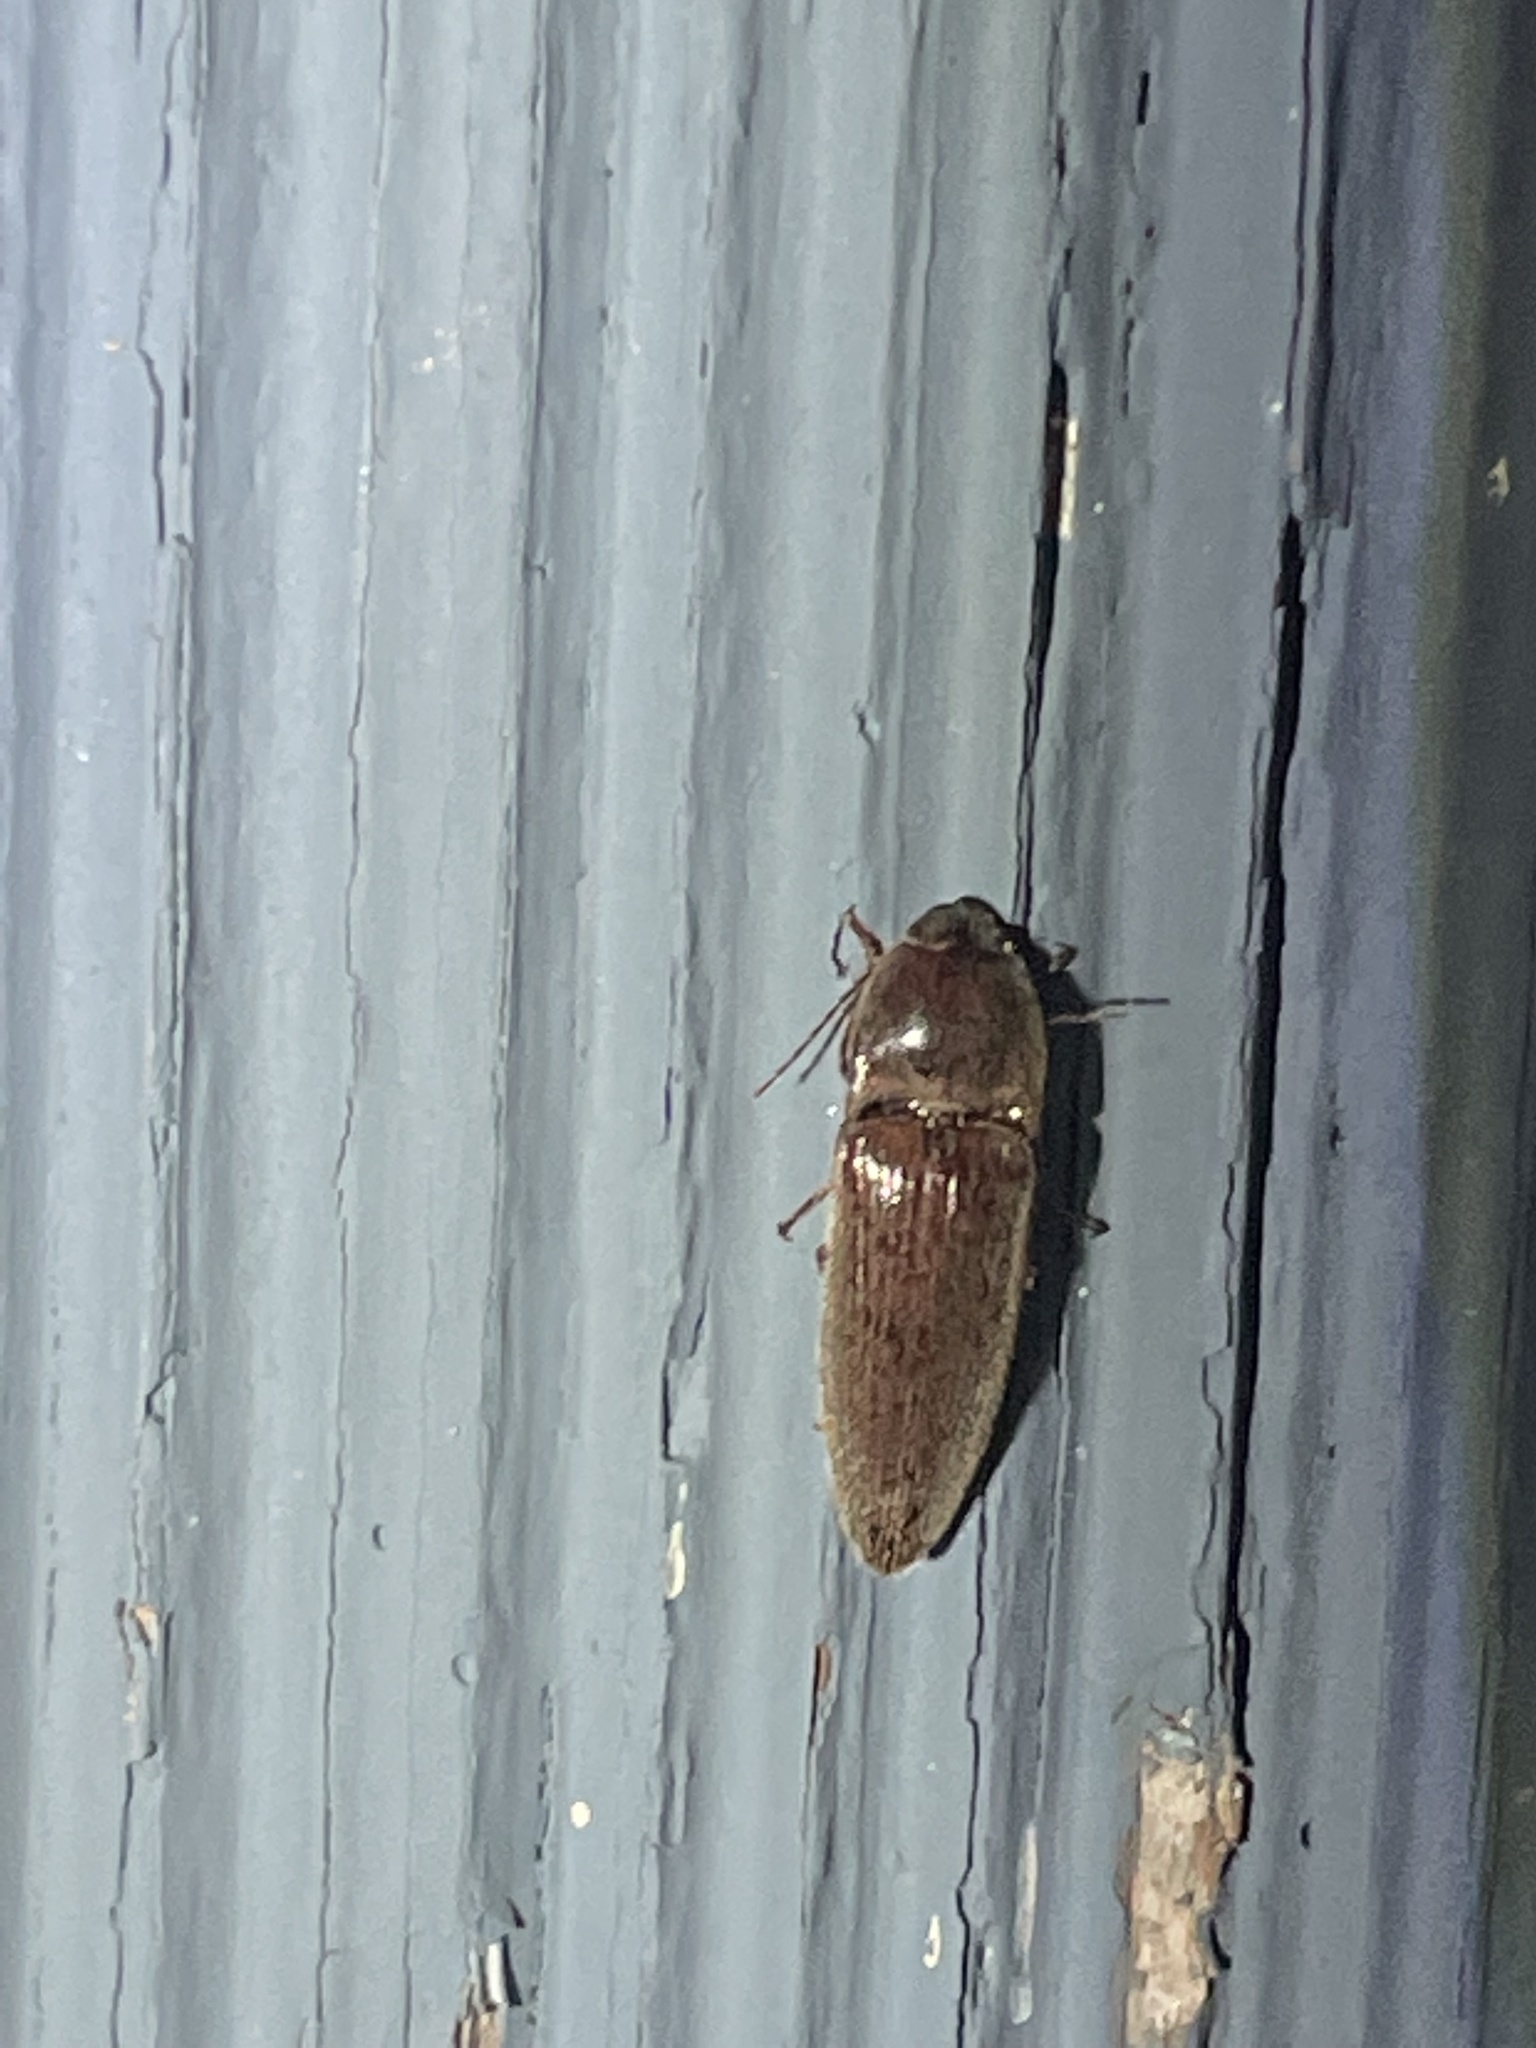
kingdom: Animalia
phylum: Arthropoda
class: Insecta
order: Coleoptera
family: Elateridae
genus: Monocrepidius
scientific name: Monocrepidius lividus
